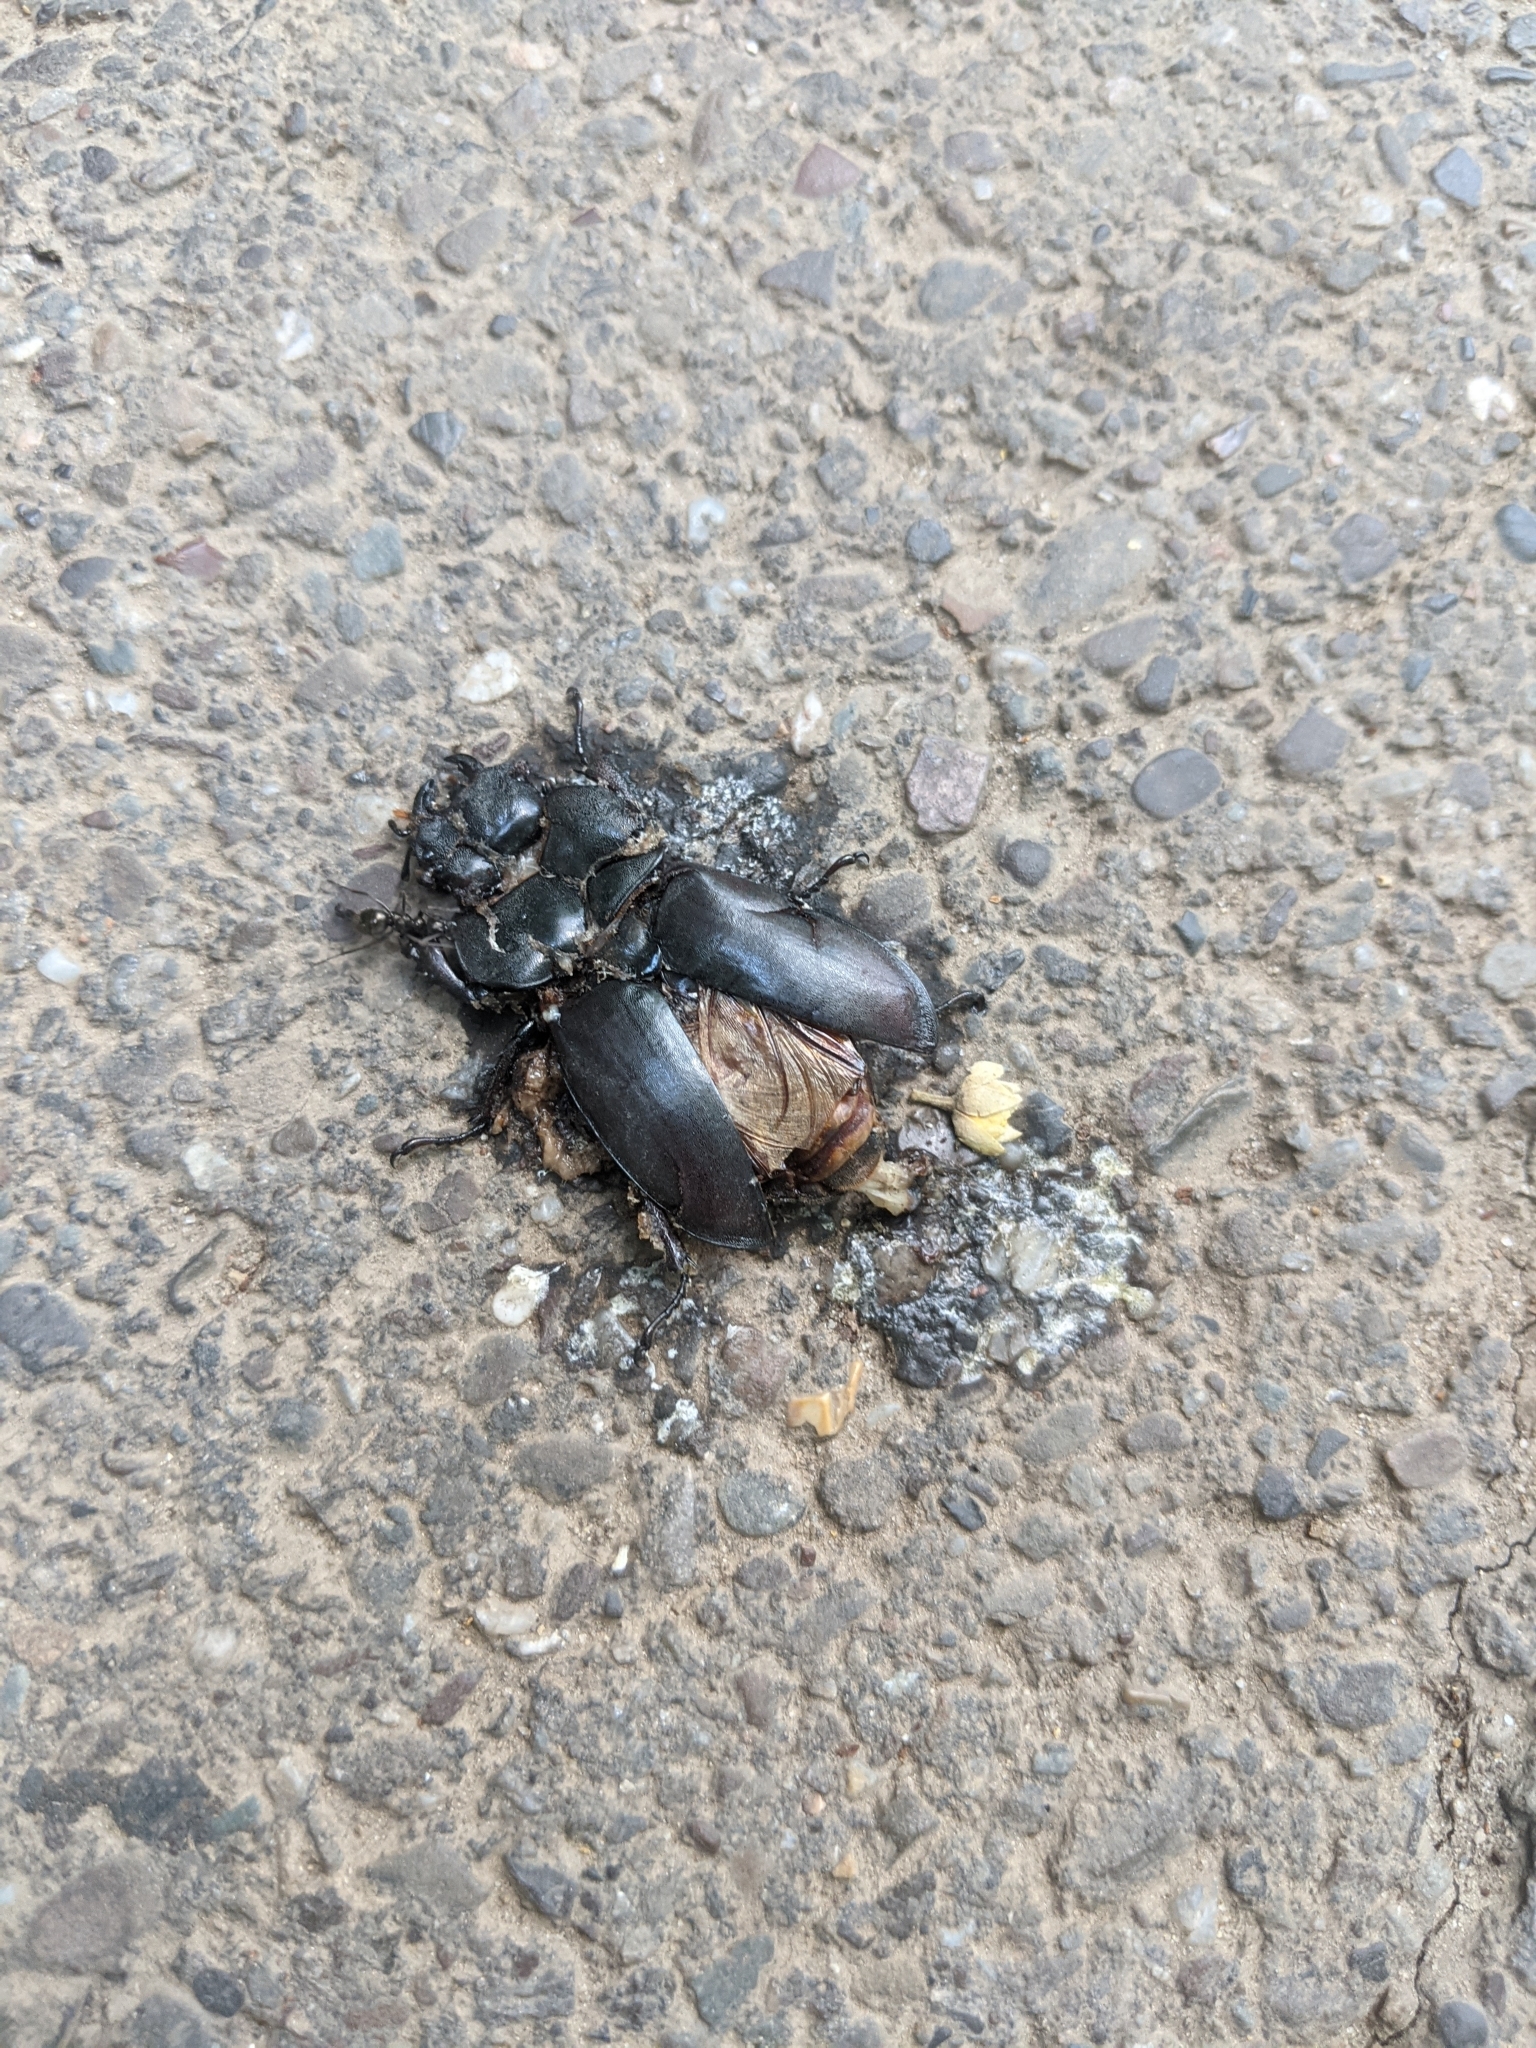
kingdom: Animalia
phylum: Arthropoda
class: Insecta
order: Coleoptera
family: Lucanidae
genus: Lucanus
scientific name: Lucanus cervus
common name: Stag beetle
